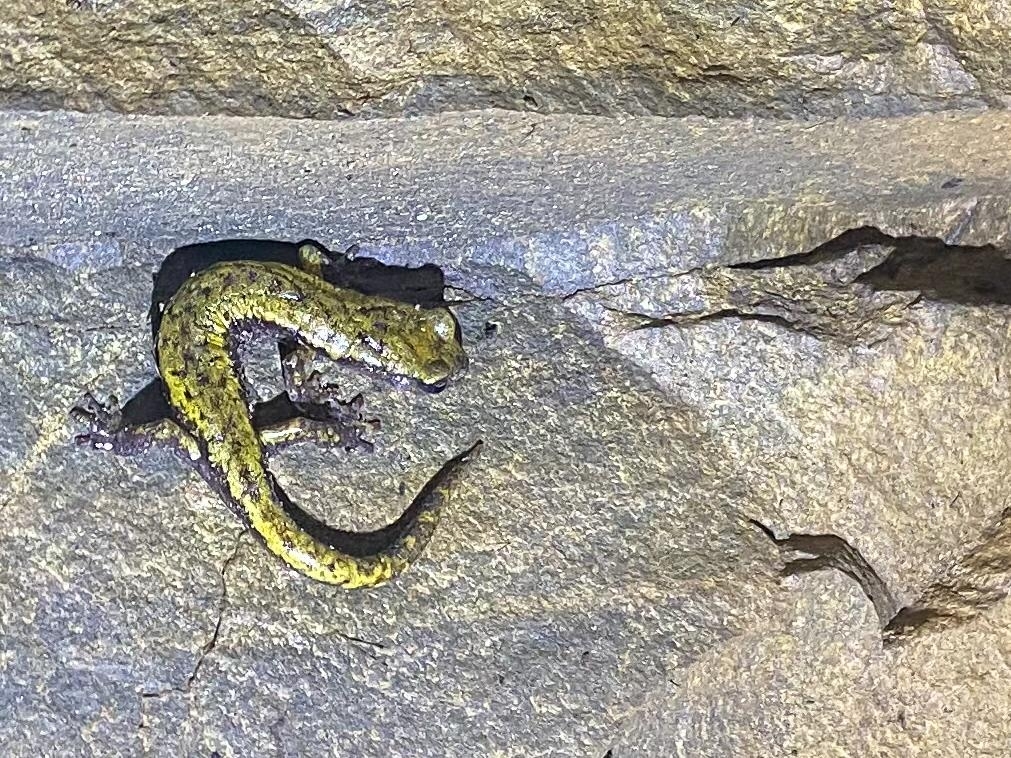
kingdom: Animalia
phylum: Chordata
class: Amphibia
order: Caudata
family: Plethodontidae
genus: Speleomantes
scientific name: Speleomantes strinatii
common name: French cave salamander
